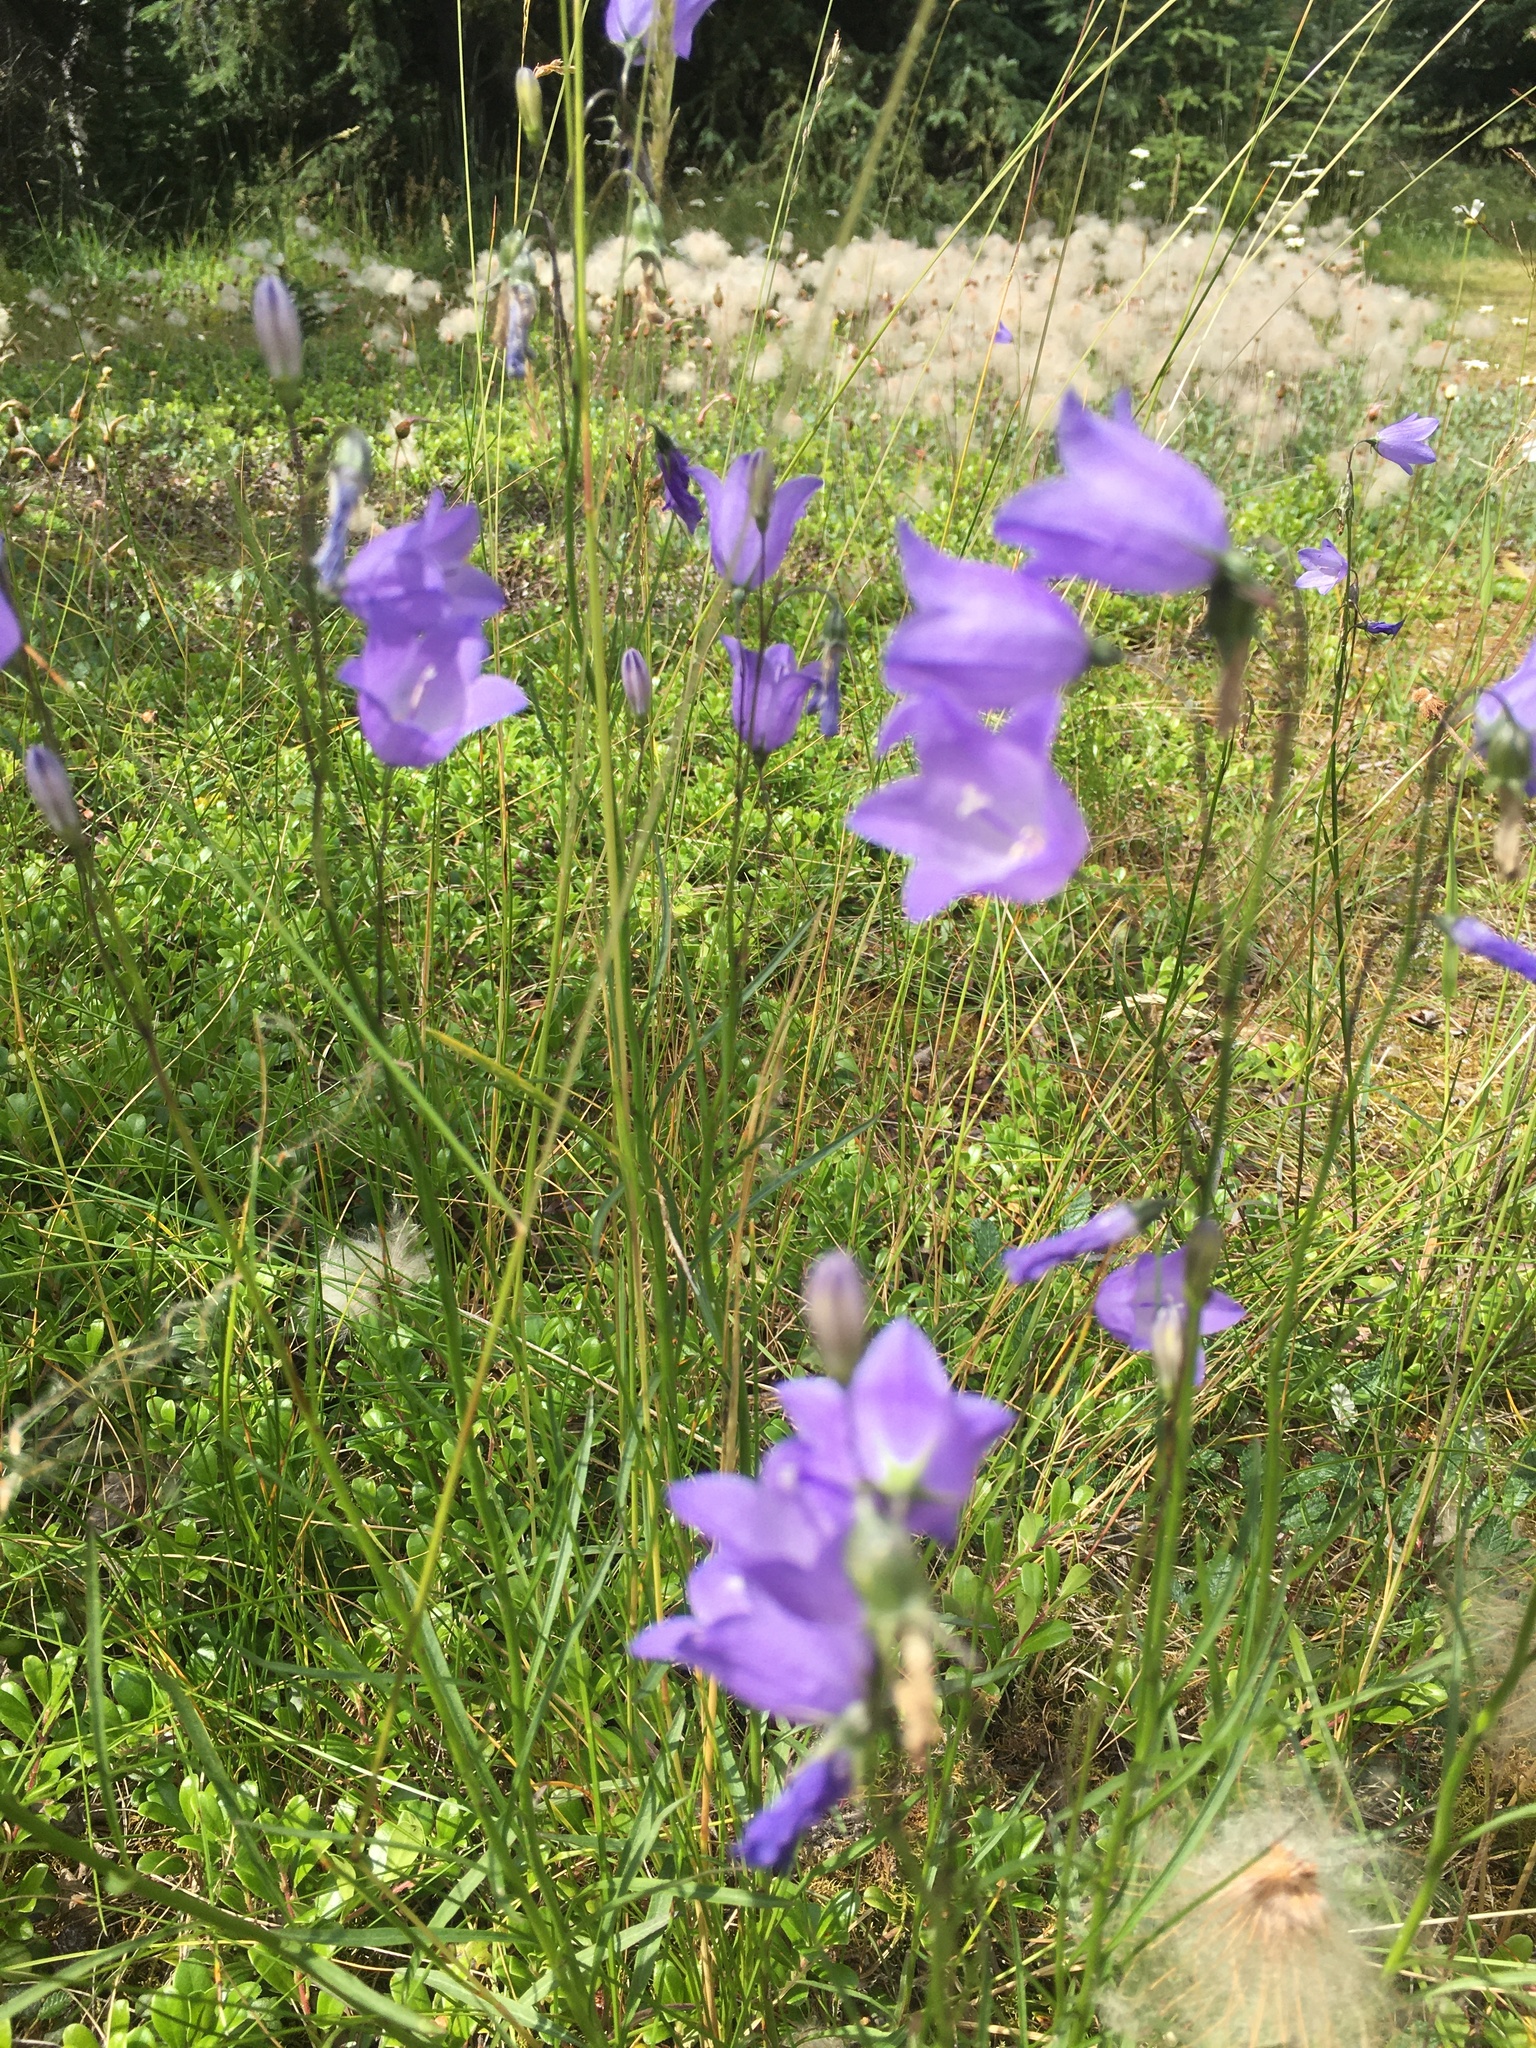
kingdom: Plantae
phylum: Tracheophyta
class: Magnoliopsida
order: Asterales
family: Campanulaceae
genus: Campanula
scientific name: Campanula alaskana
